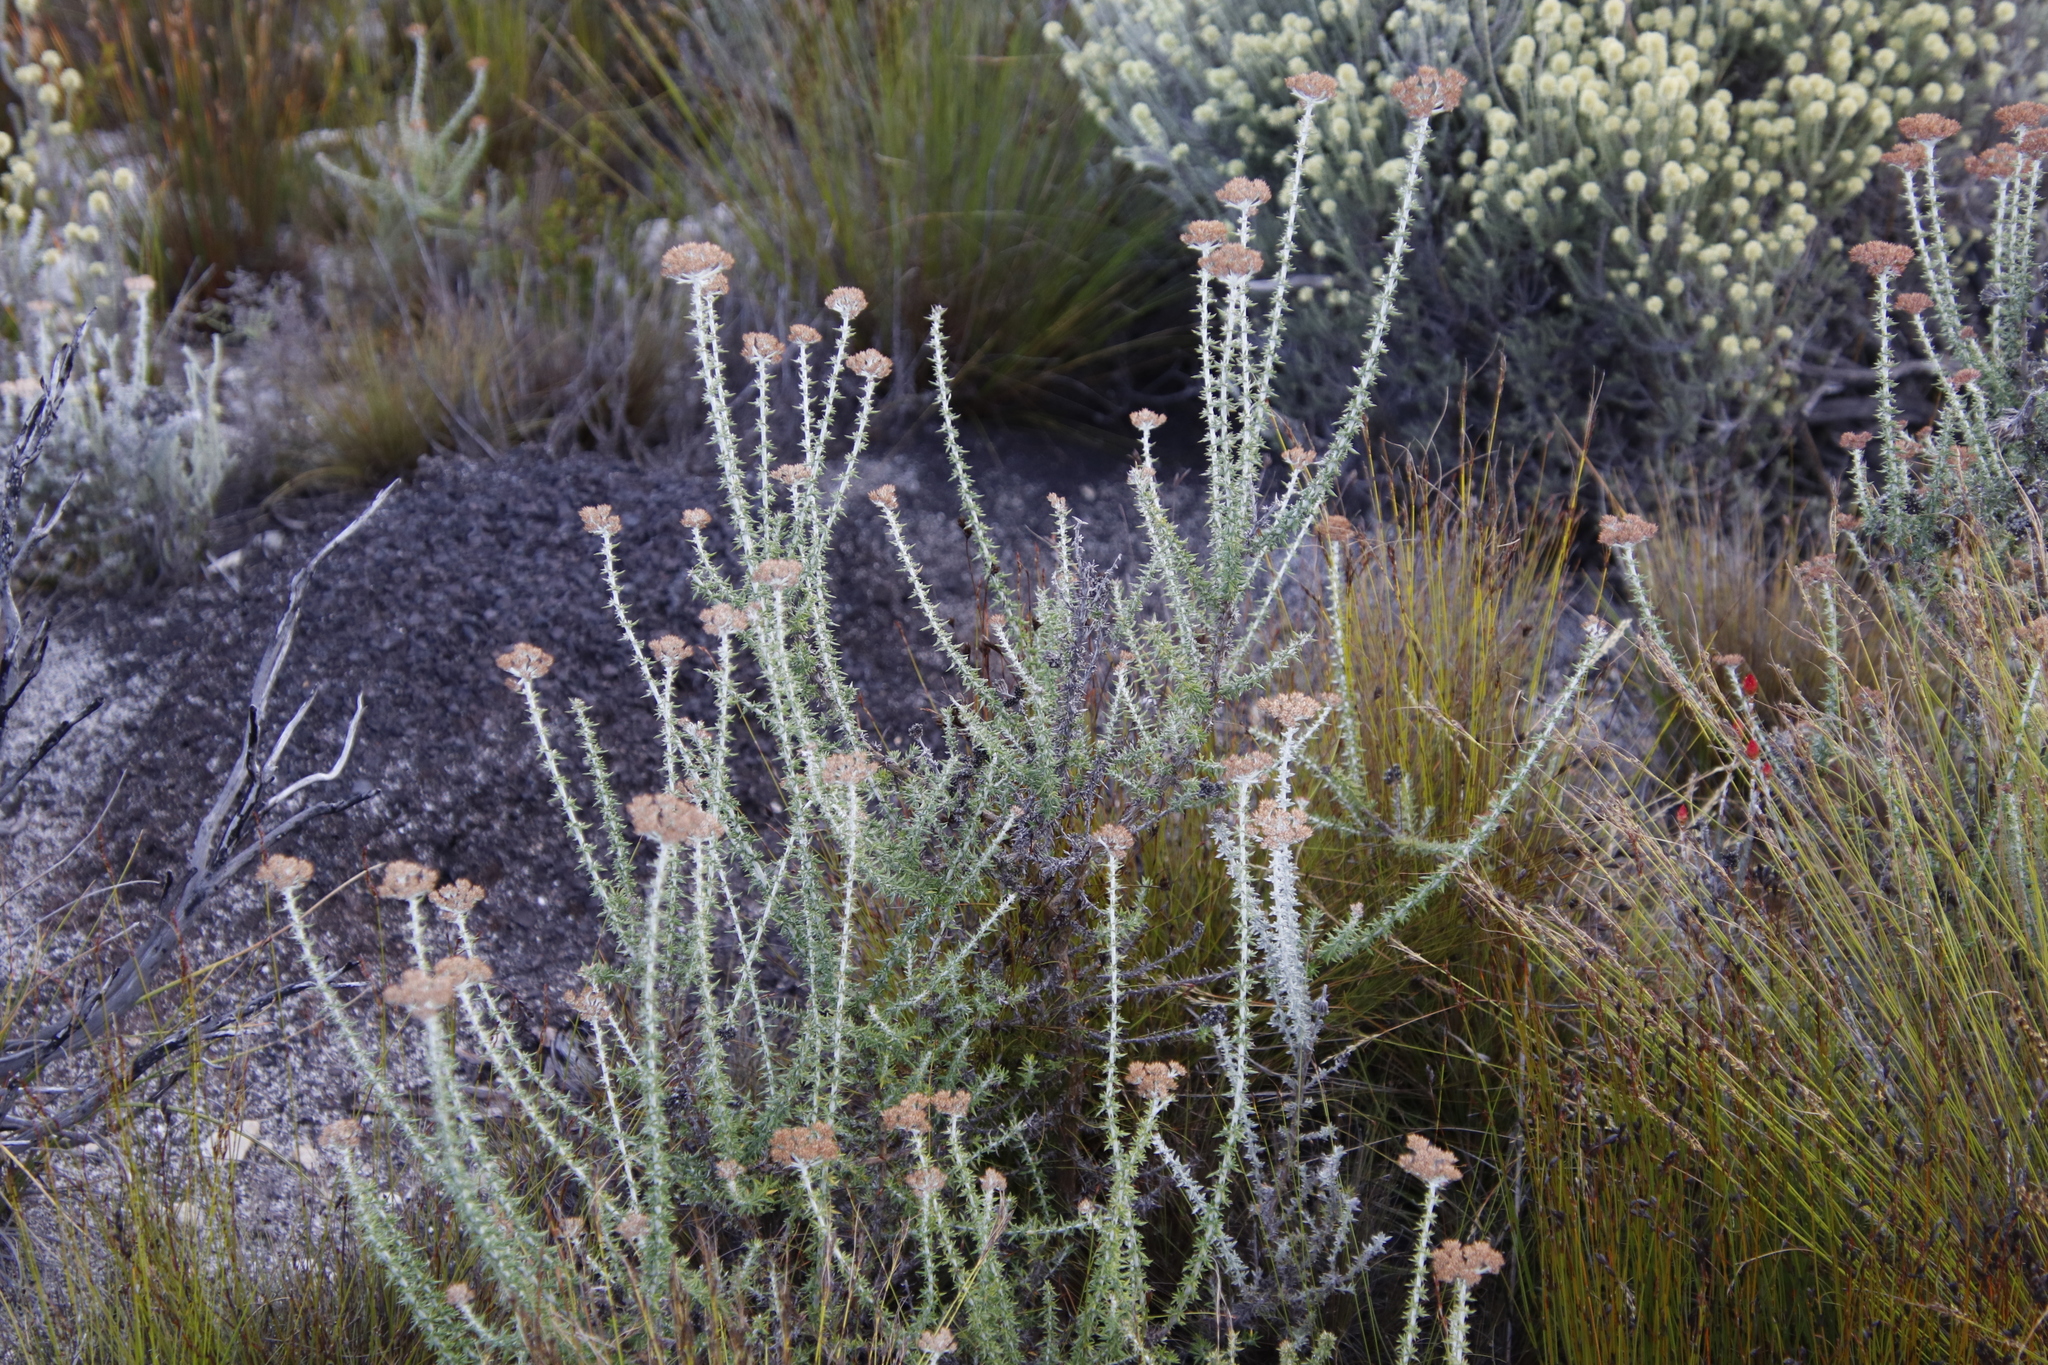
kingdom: Plantae
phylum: Tracheophyta
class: Magnoliopsida
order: Asterales
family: Asteraceae
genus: Metalasia
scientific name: Metalasia densa
